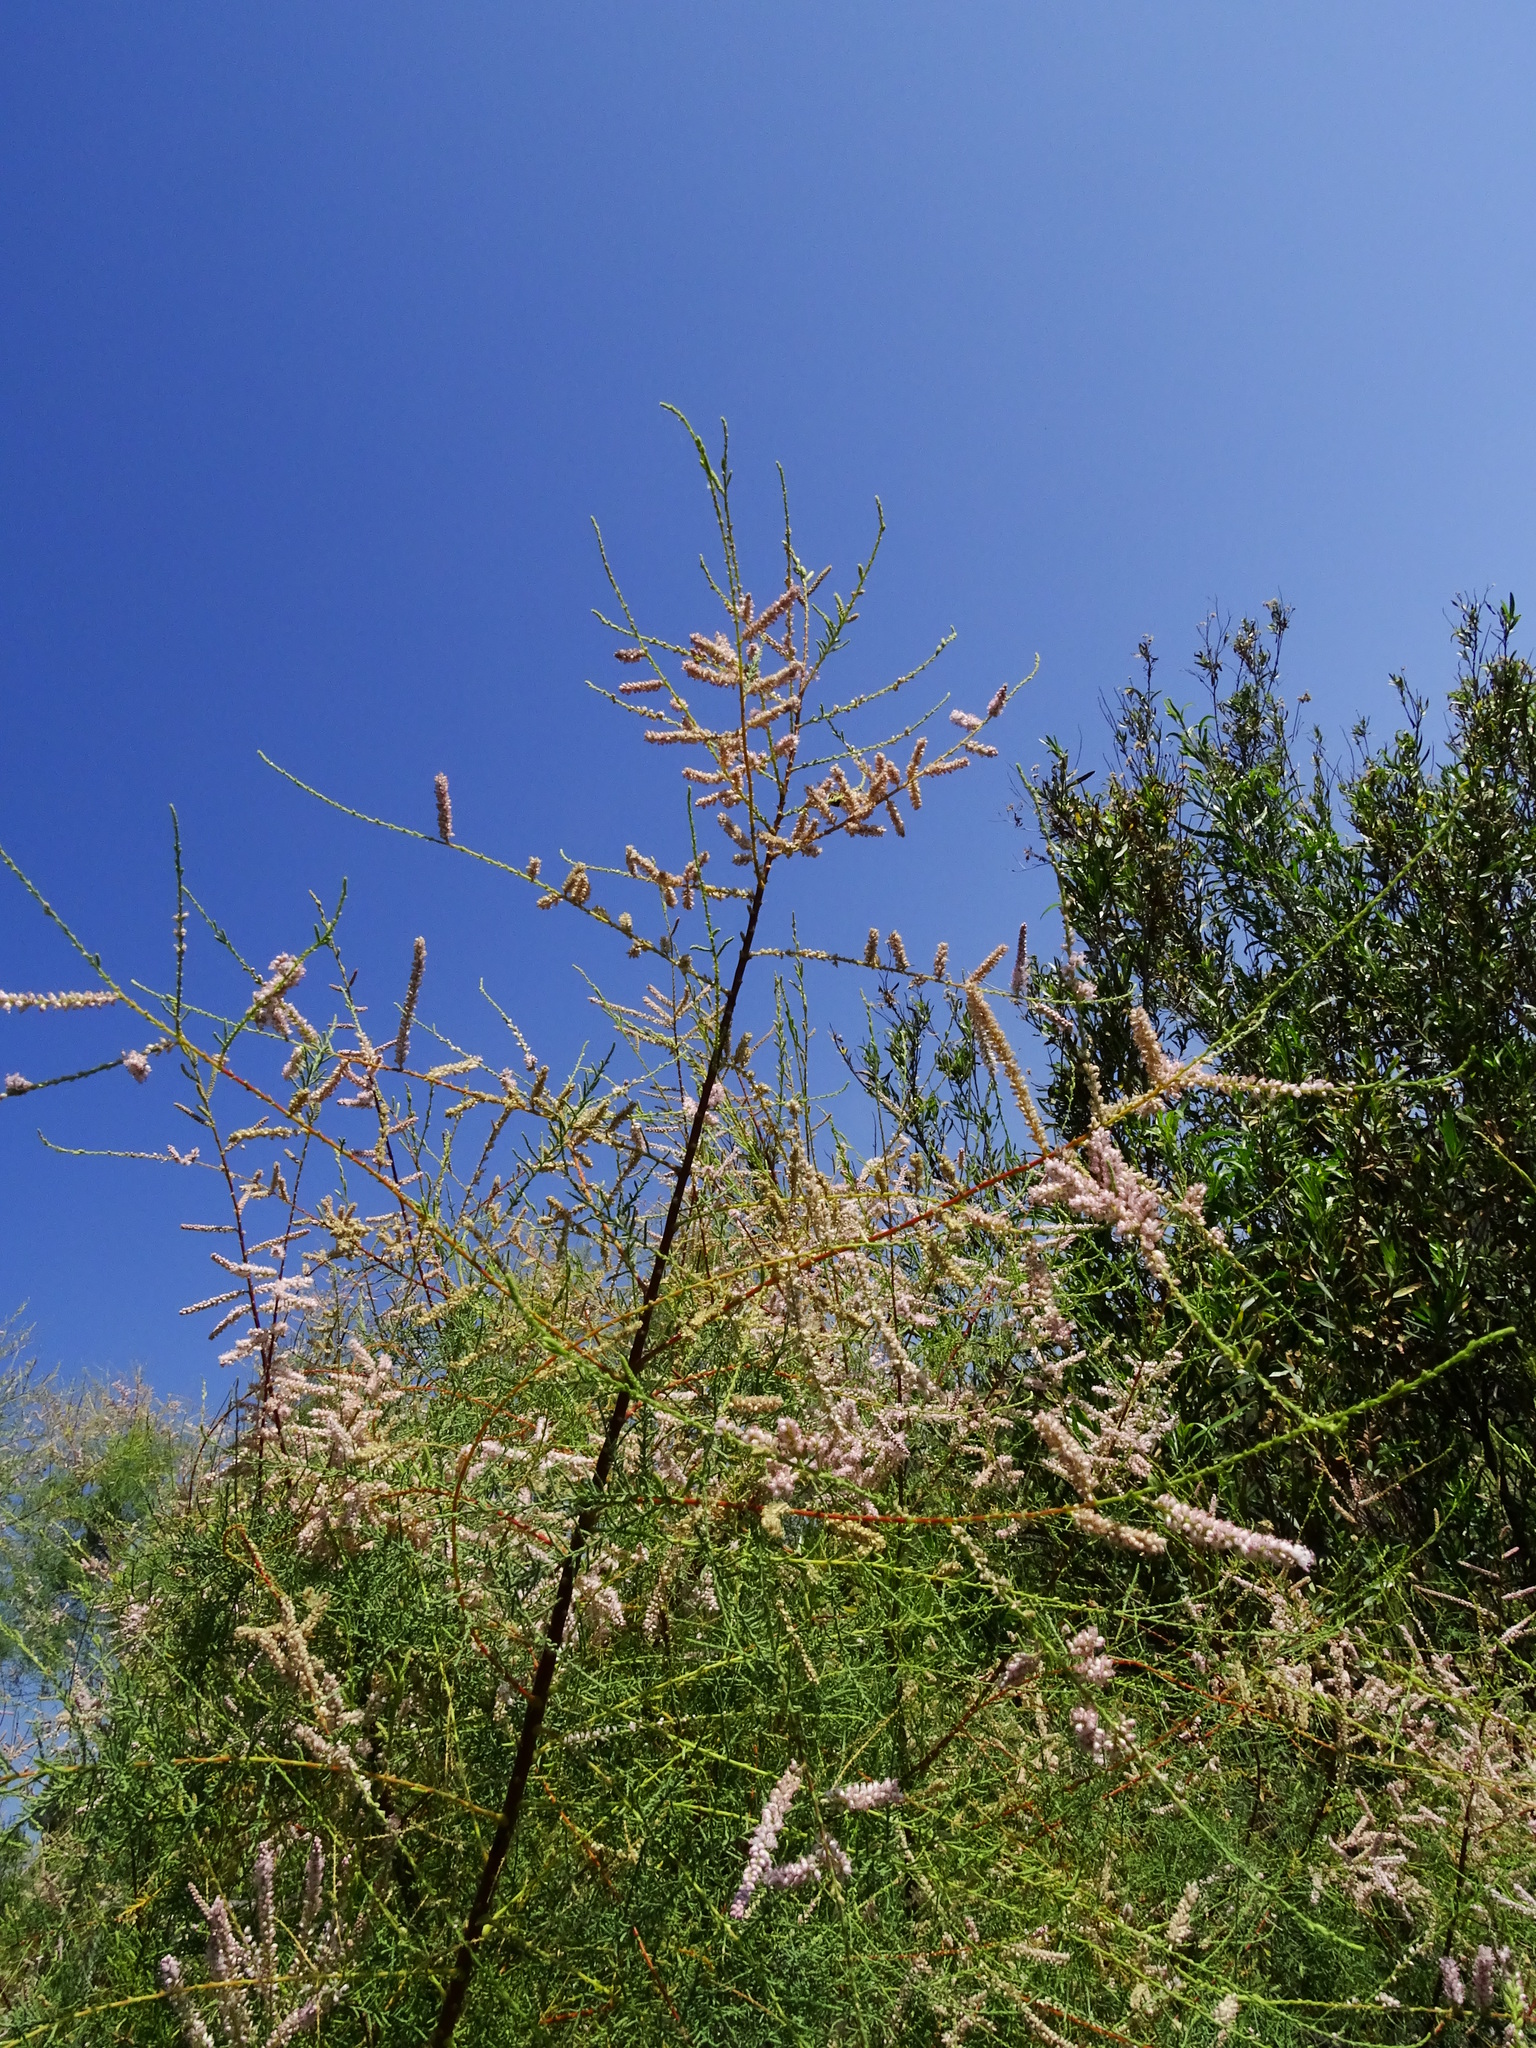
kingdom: Plantae
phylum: Tracheophyta
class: Magnoliopsida
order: Caryophyllales
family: Tamaricaceae
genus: Tamarix
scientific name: Tamarix ramosissima
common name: Pink tamarisk
